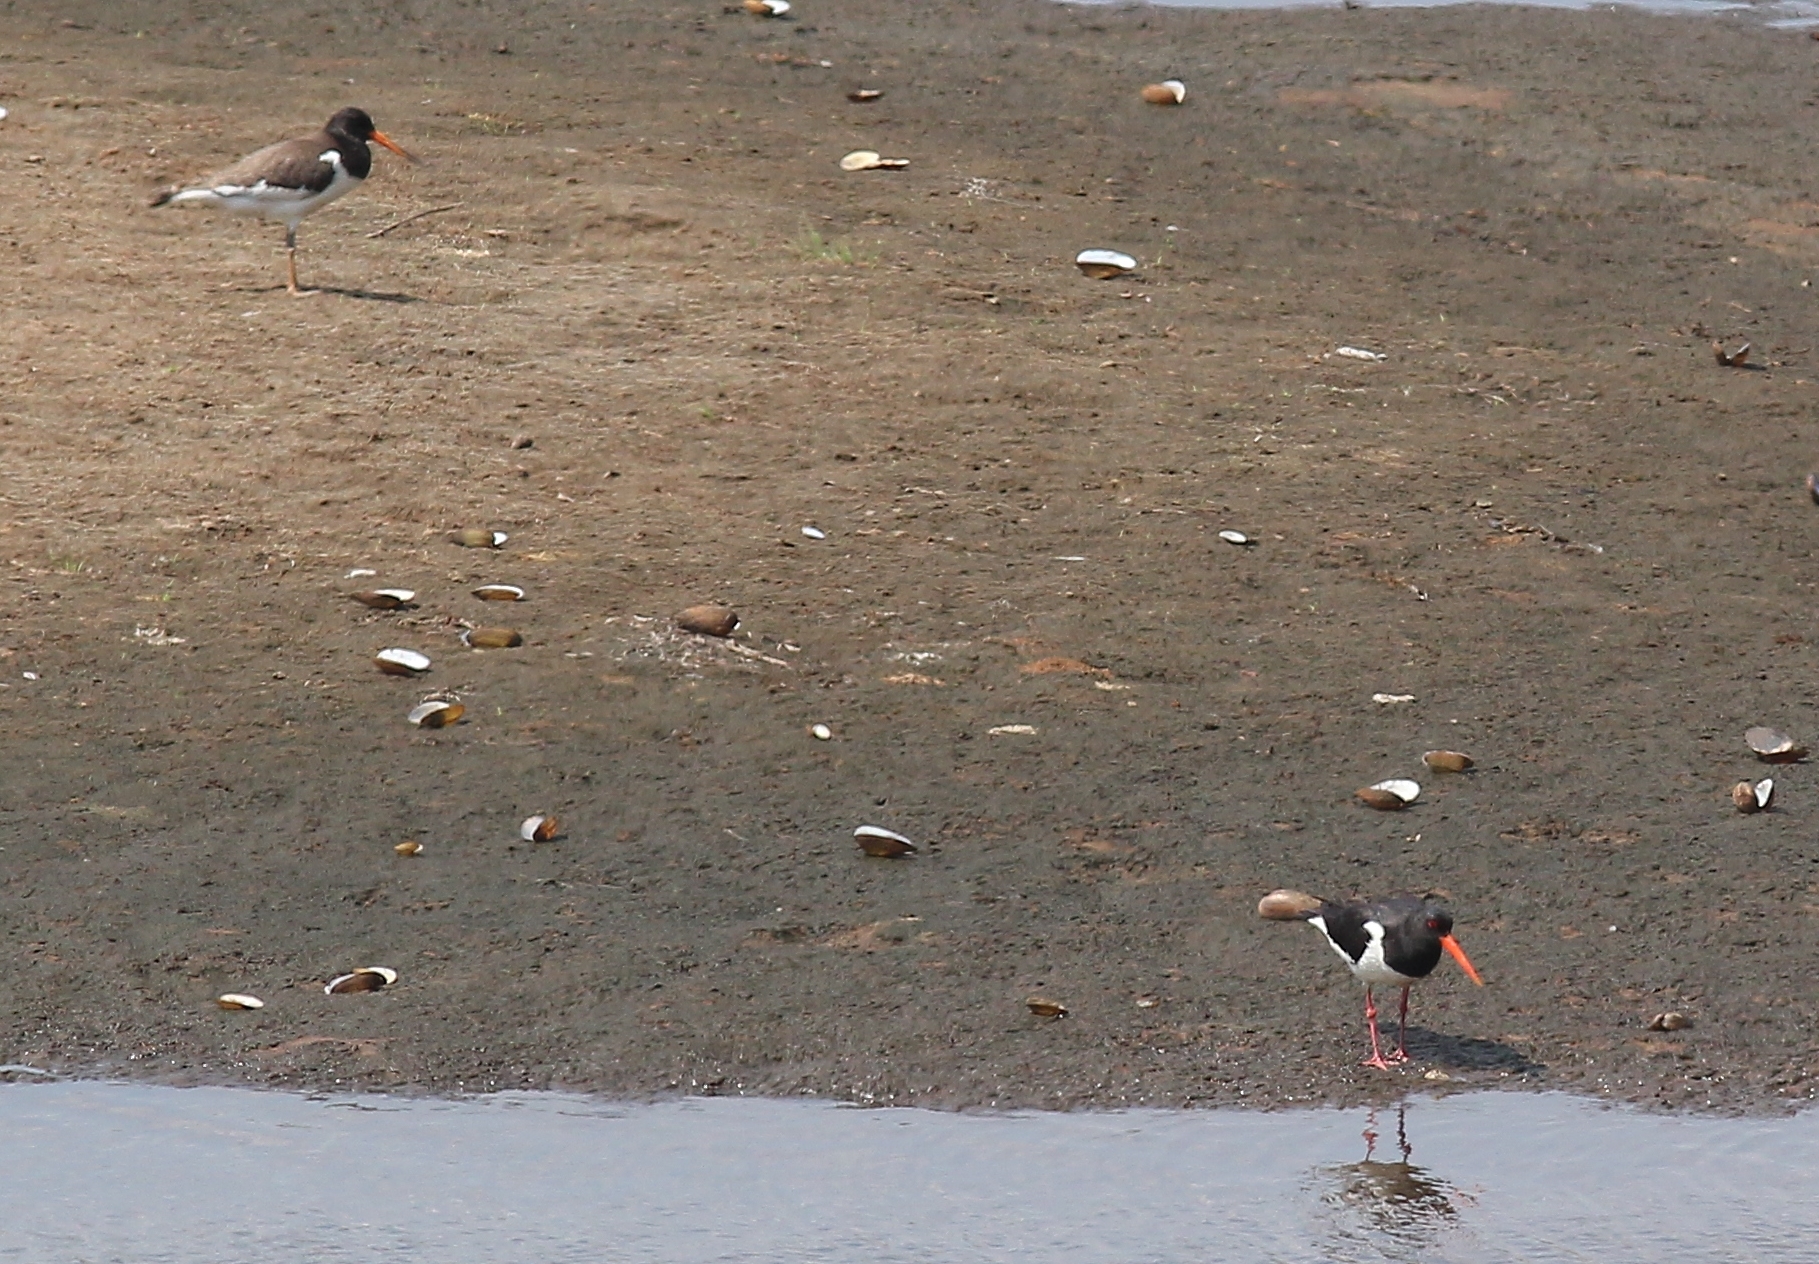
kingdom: Animalia
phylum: Chordata
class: Aves
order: Charadriiformes
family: Haematopodidae
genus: Haematopus
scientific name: Haematopus ostralegus
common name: Eurasian oystercatcher
